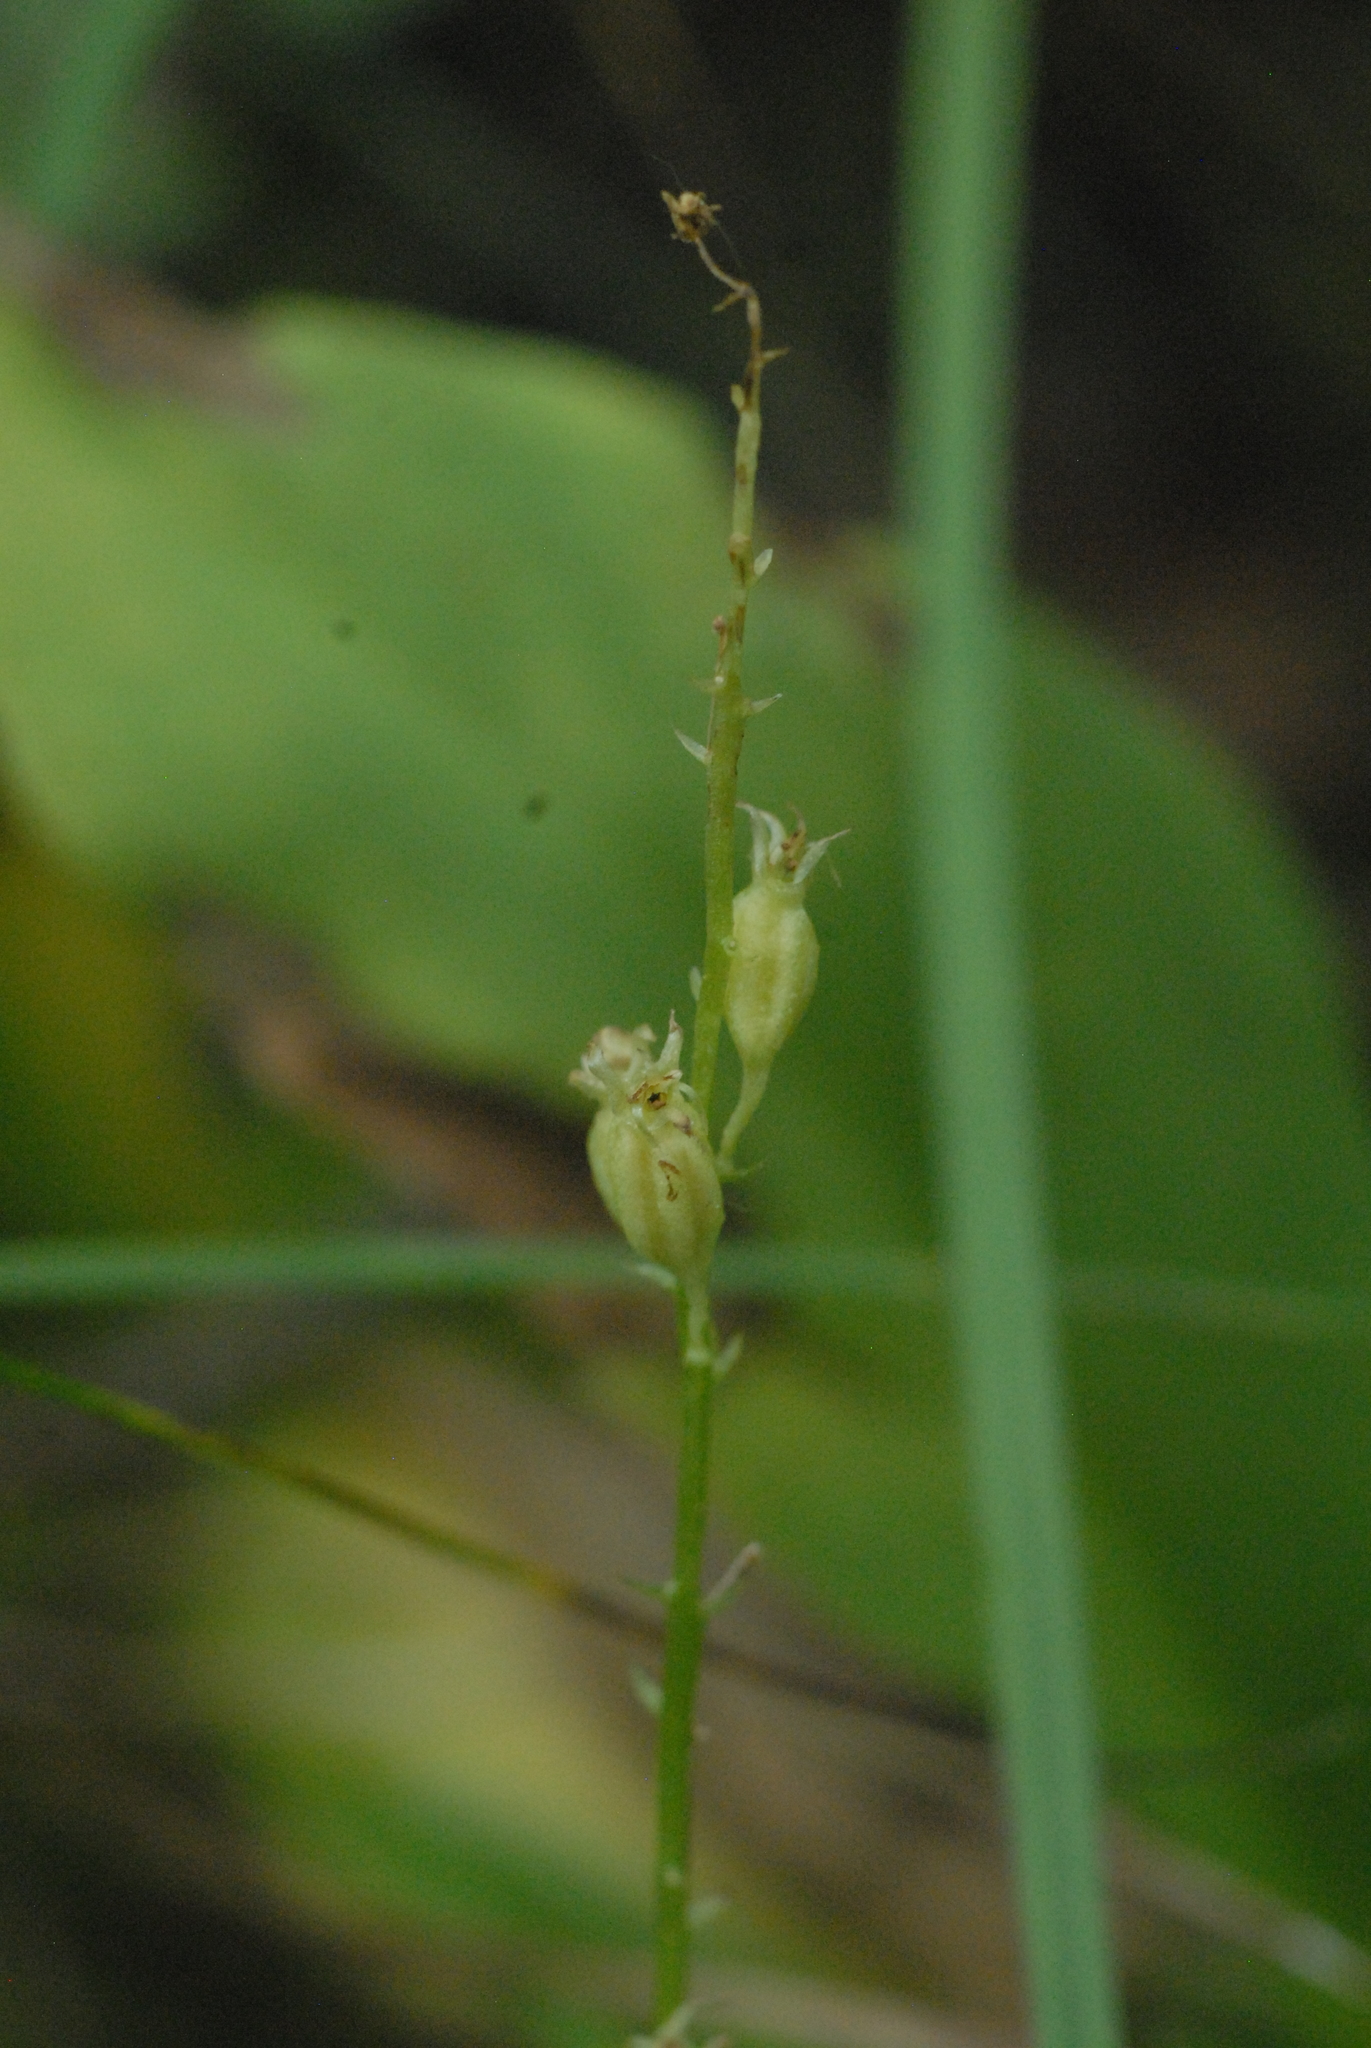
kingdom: Plantae
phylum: Tracheophyta
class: Liliopsida
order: Asparagales
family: Orchidaceae
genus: Malaxis
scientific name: Malaxis monophyllos
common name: White adder's-mouth
